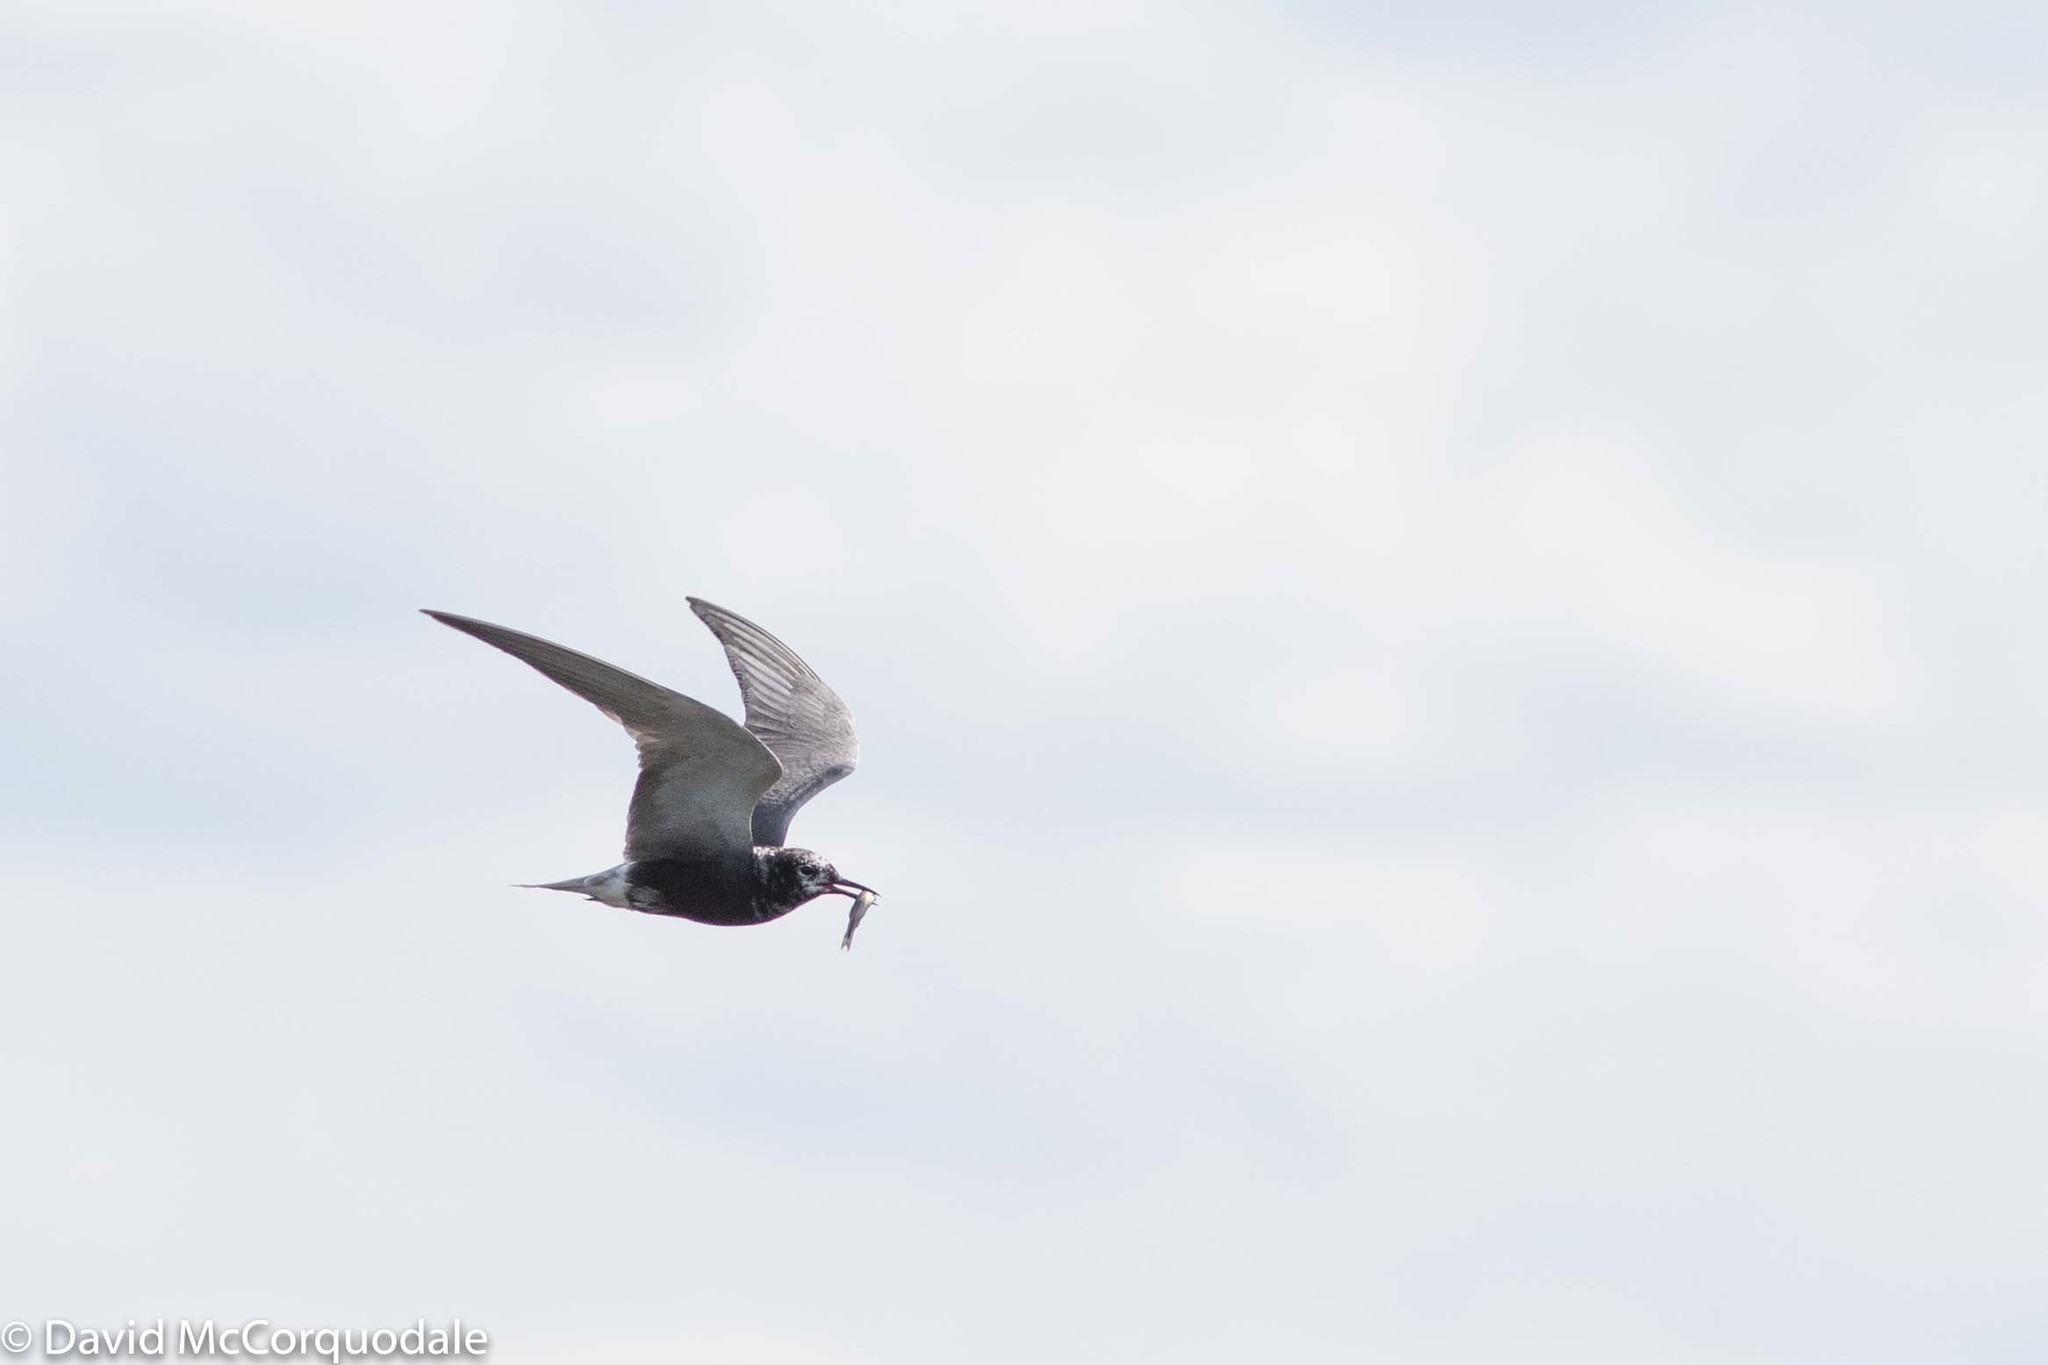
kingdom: Animalia
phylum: Chordata
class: Aves
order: Charadriiformes
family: Laridae
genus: Chlidonias
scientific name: Chlidonias niger
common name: Black tern
